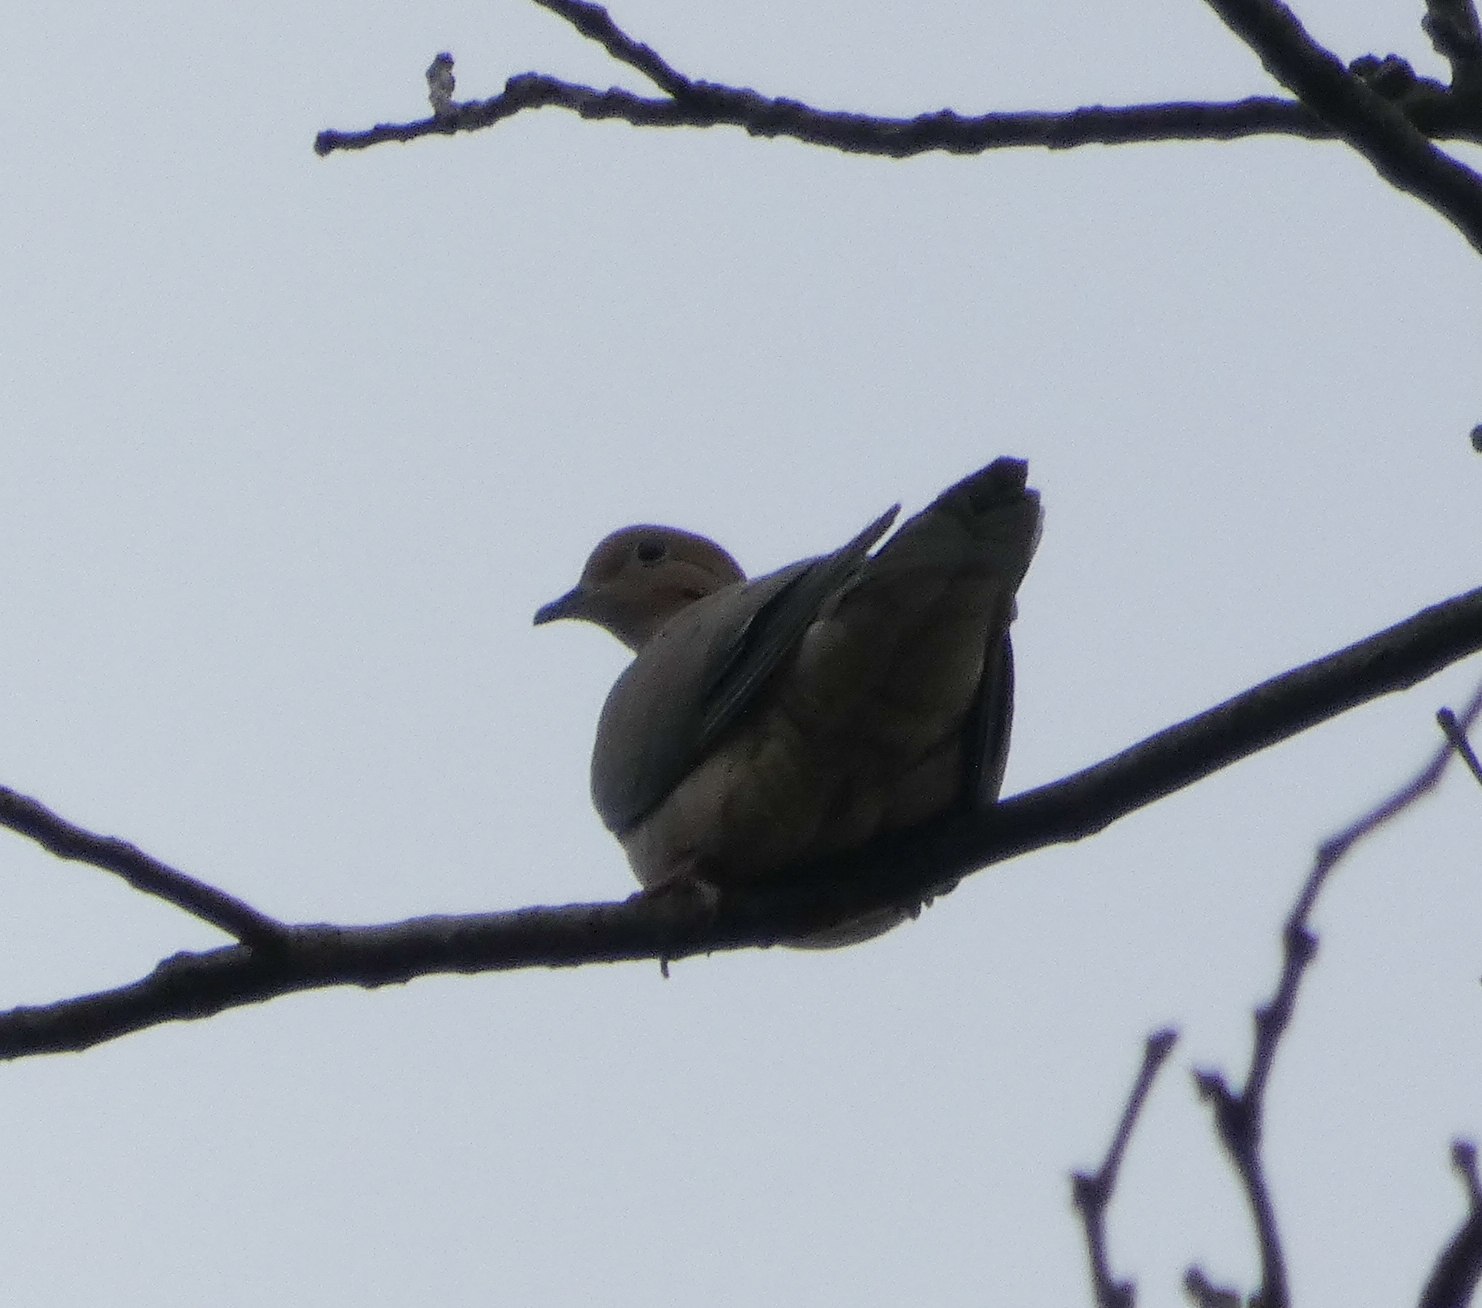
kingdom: Animalia
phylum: Chordata
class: Aves
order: Columbiformes
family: Columbidae
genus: Zenaida
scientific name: Zenaida macroura
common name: Mourning dove
